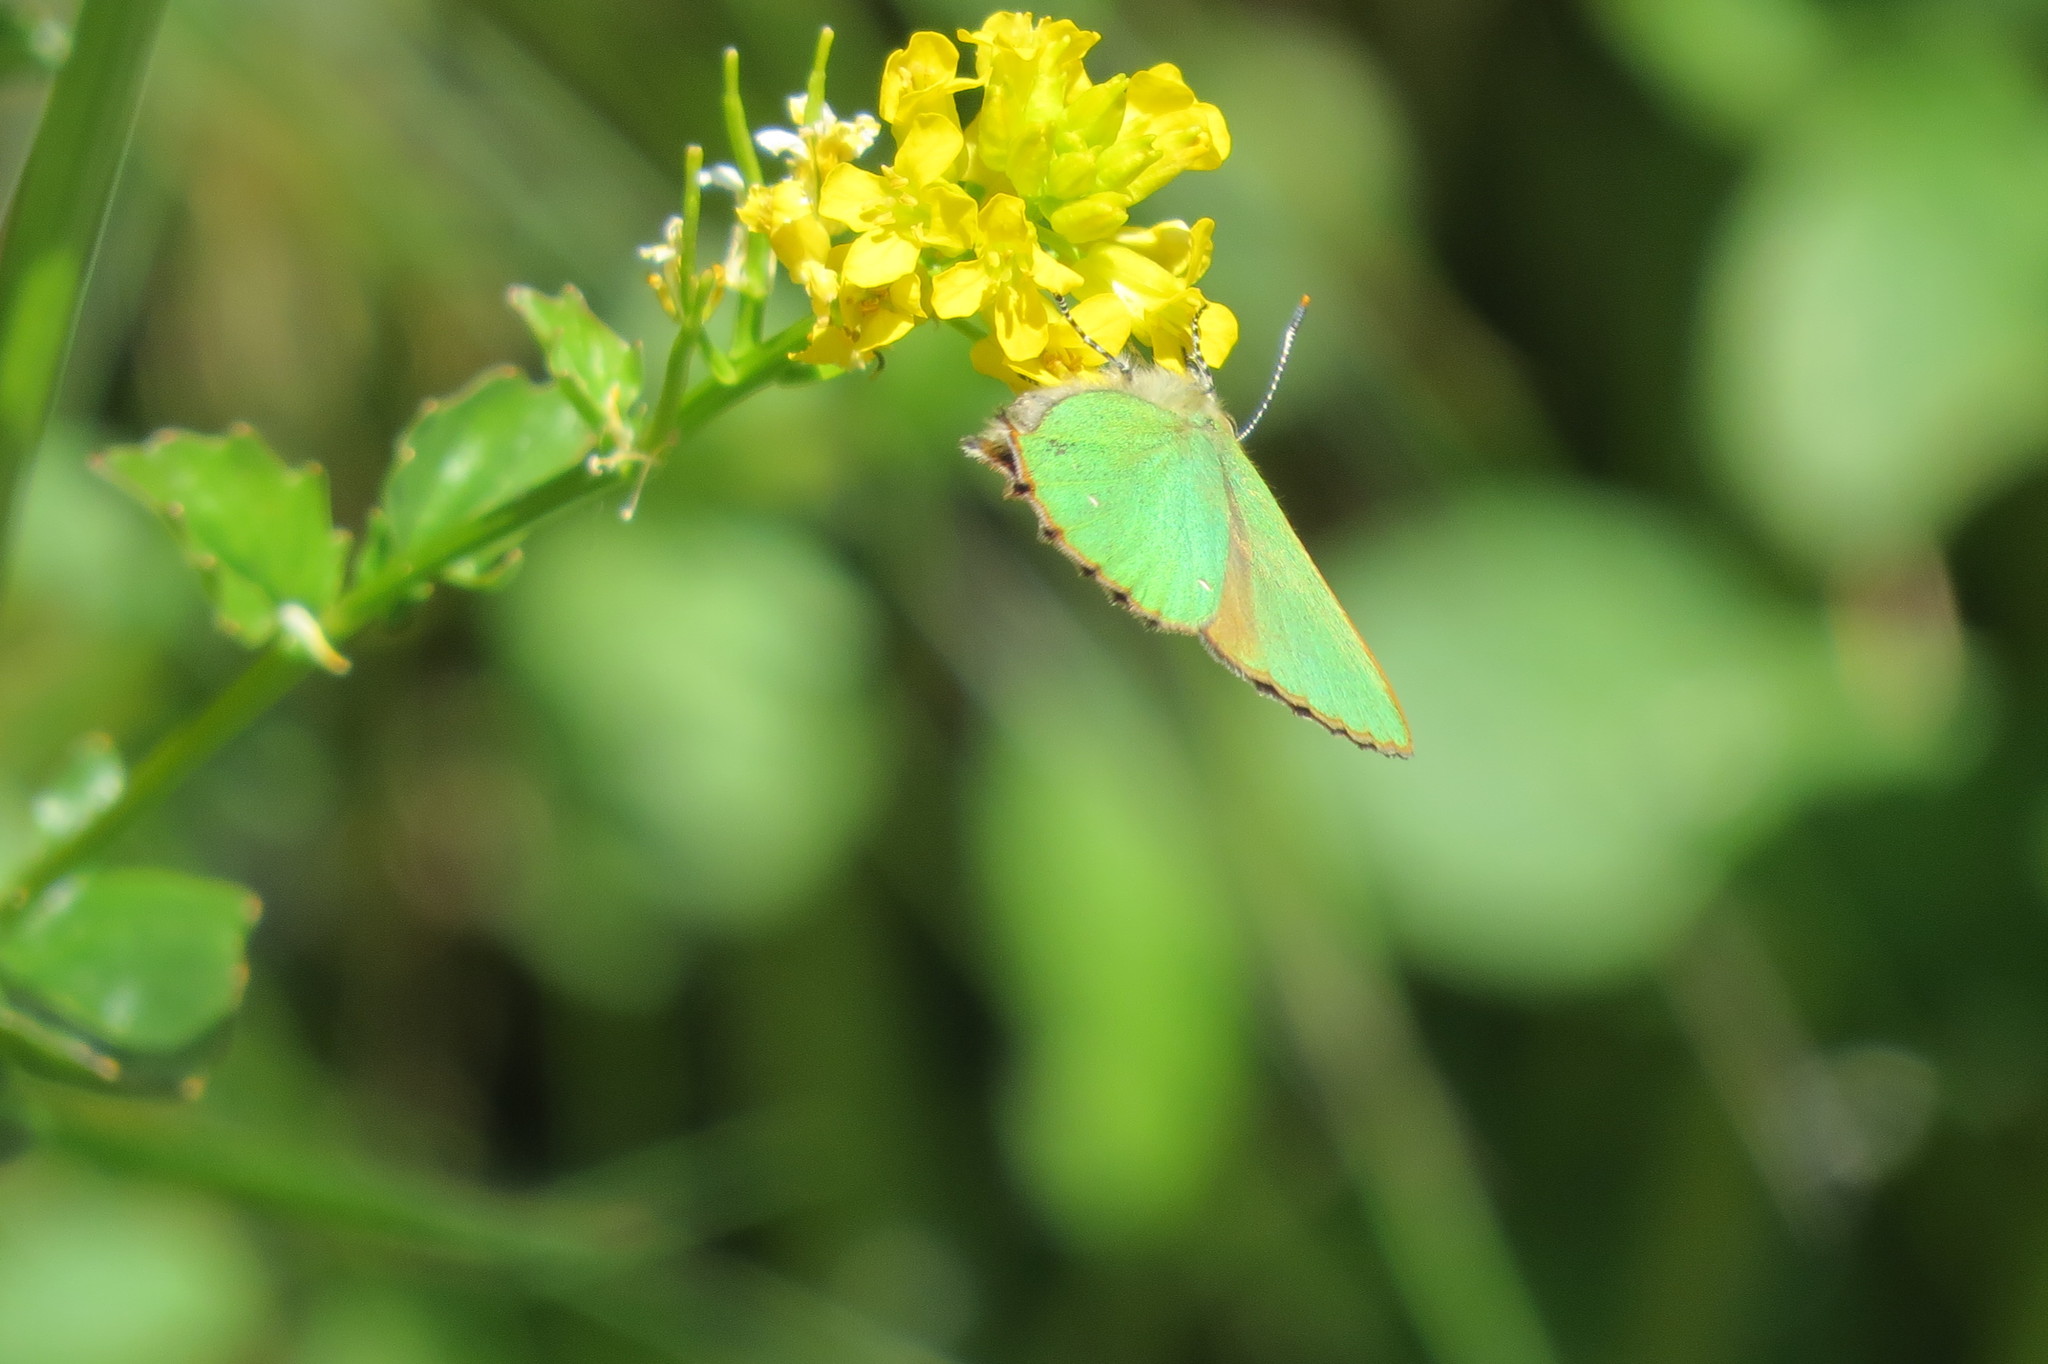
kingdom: Animalia
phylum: Arthropoda
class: Insecta
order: Lepidoptera
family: Lycaenidae
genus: Callophrys
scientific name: Callophrys rubi
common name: Green hairstreak
